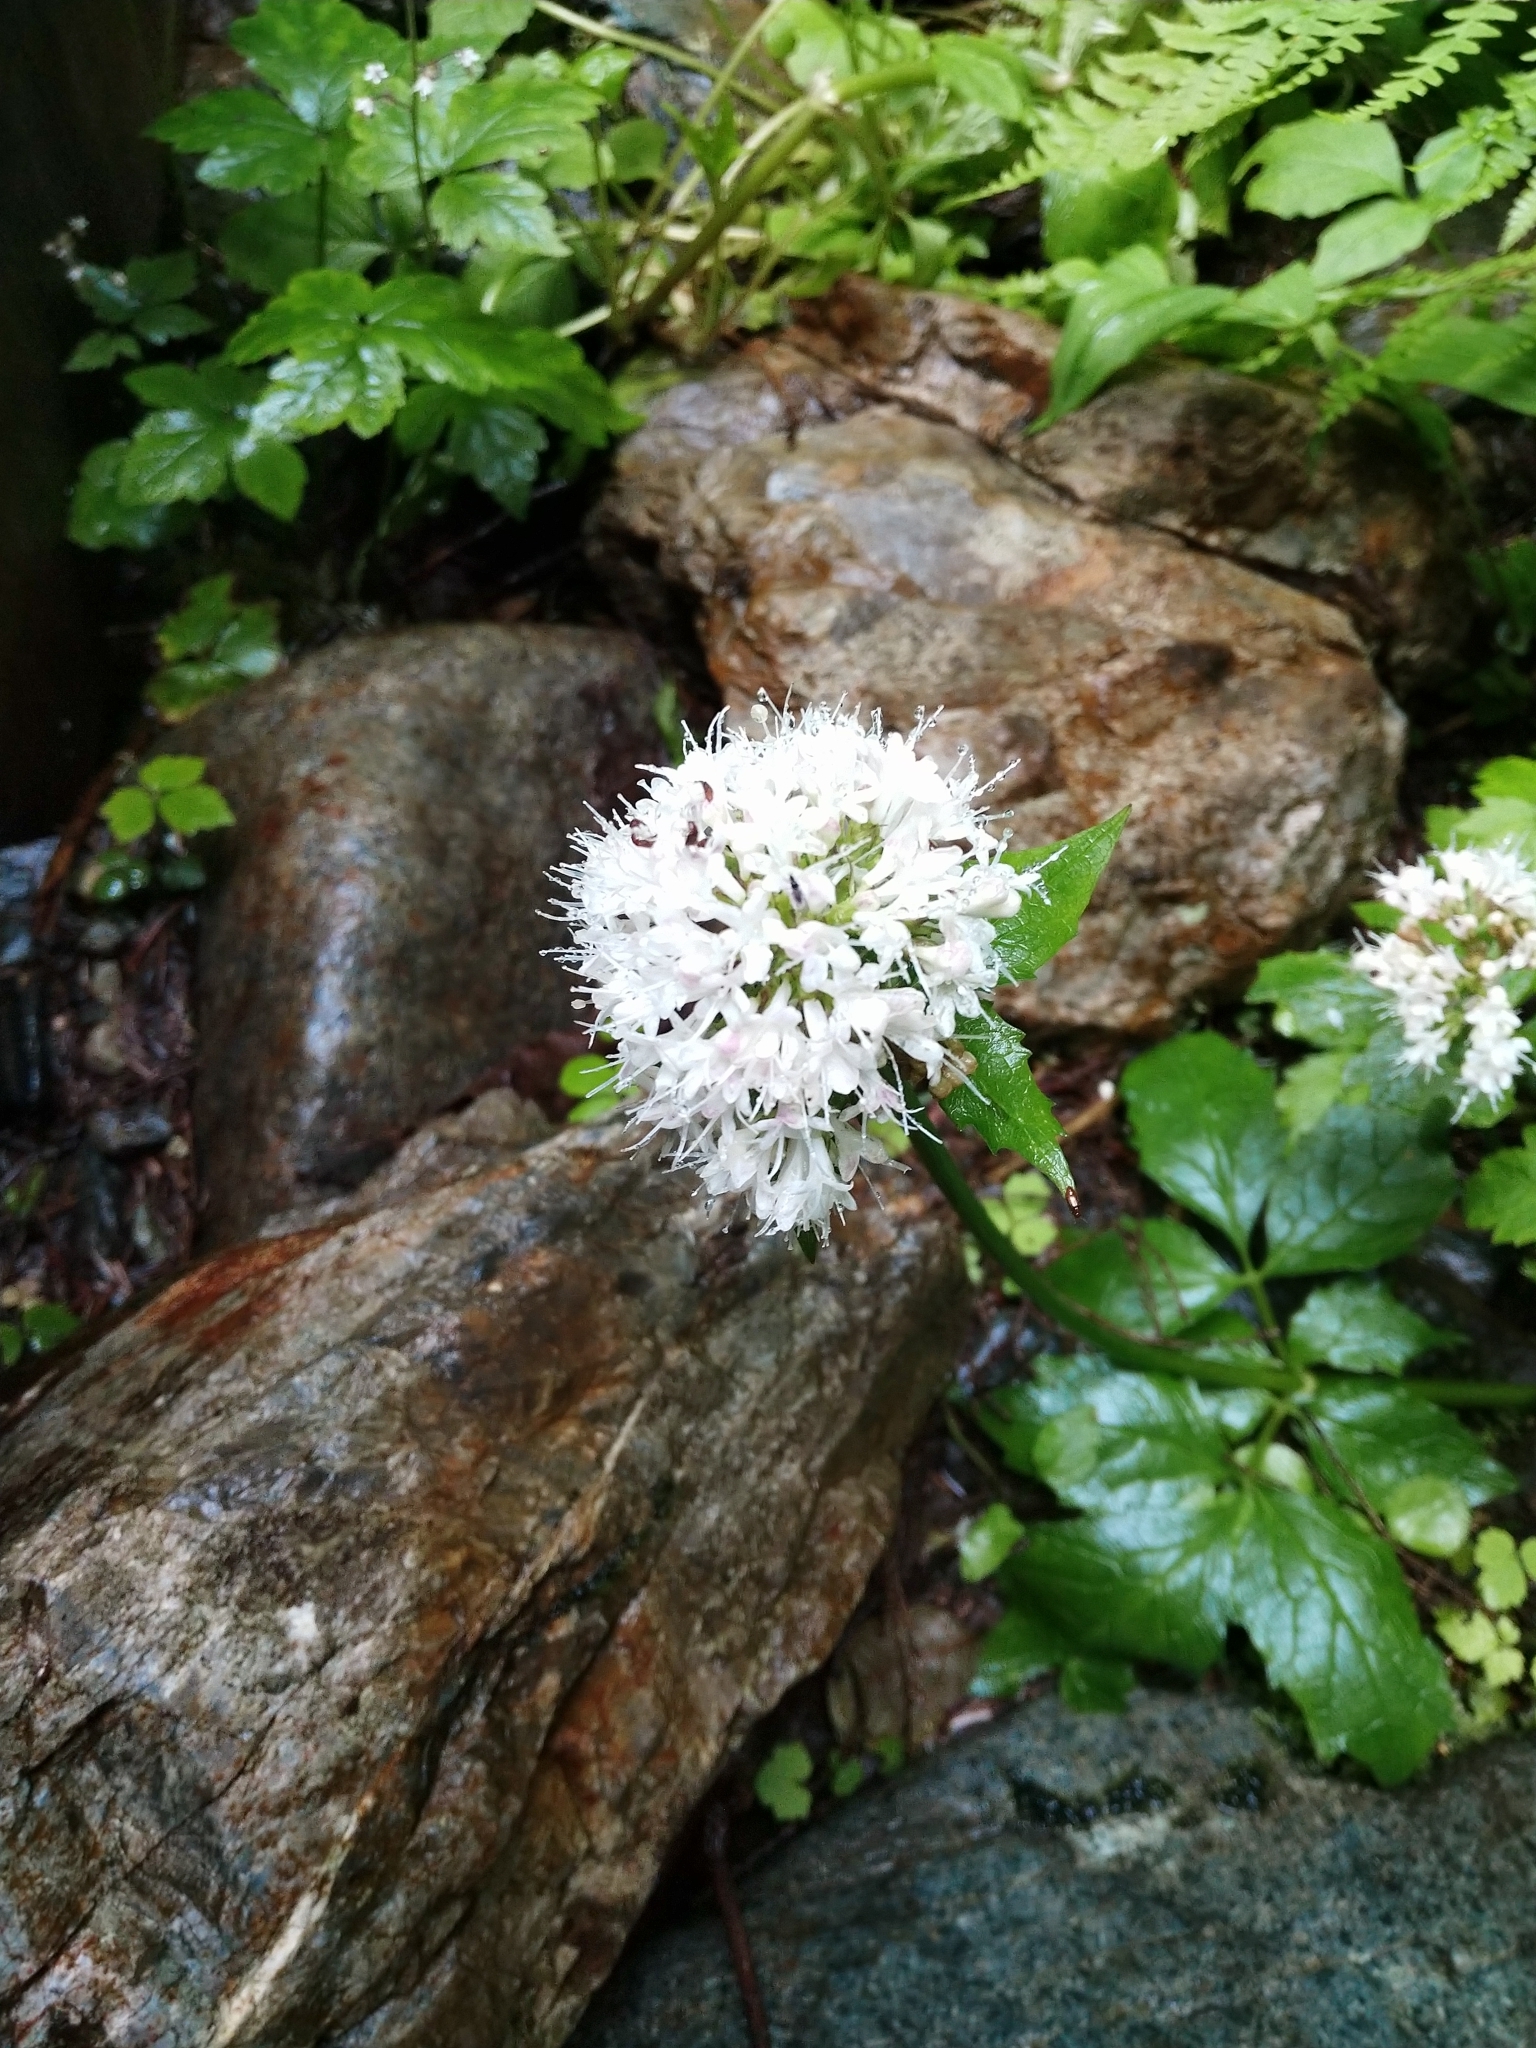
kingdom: Plantae
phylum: Tracheophyta
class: Magnoliopsida
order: Dipsacales
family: Caprifoliaceae
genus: Valeriana
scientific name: Valeriana sitchensis
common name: Pacific valerian
